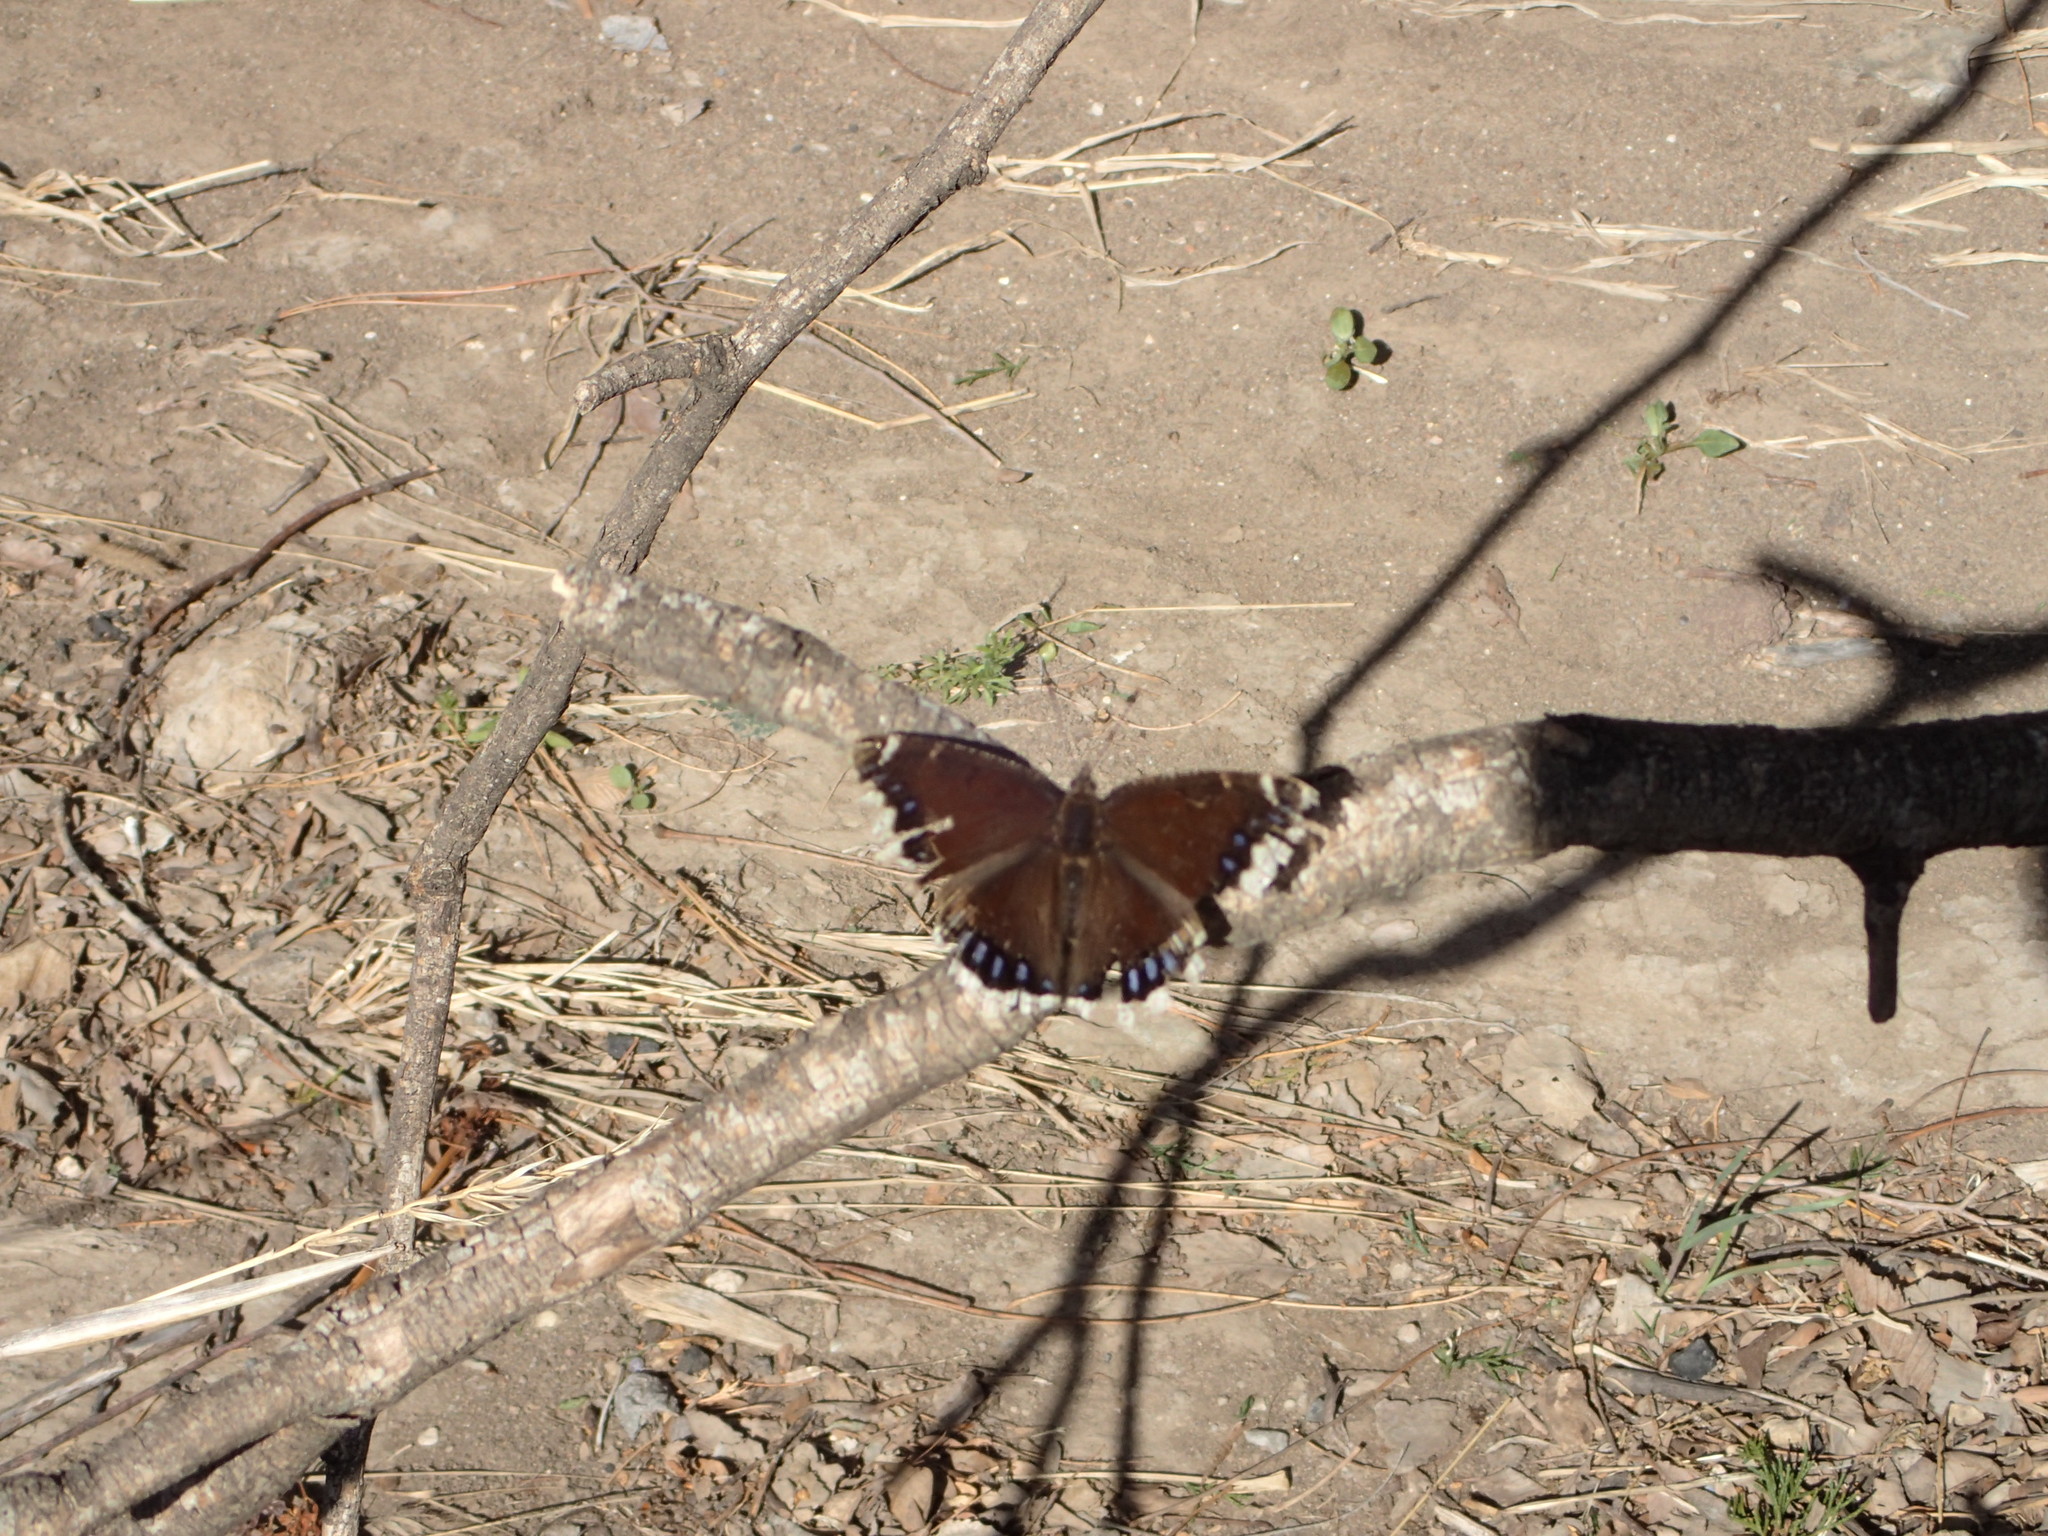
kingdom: Animalia
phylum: Arthropoda
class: Insecta
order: Lepidoptera
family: Nymphalidae
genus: Nymphalis
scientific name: Nymphalis antiopa
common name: Camberwell beauty
